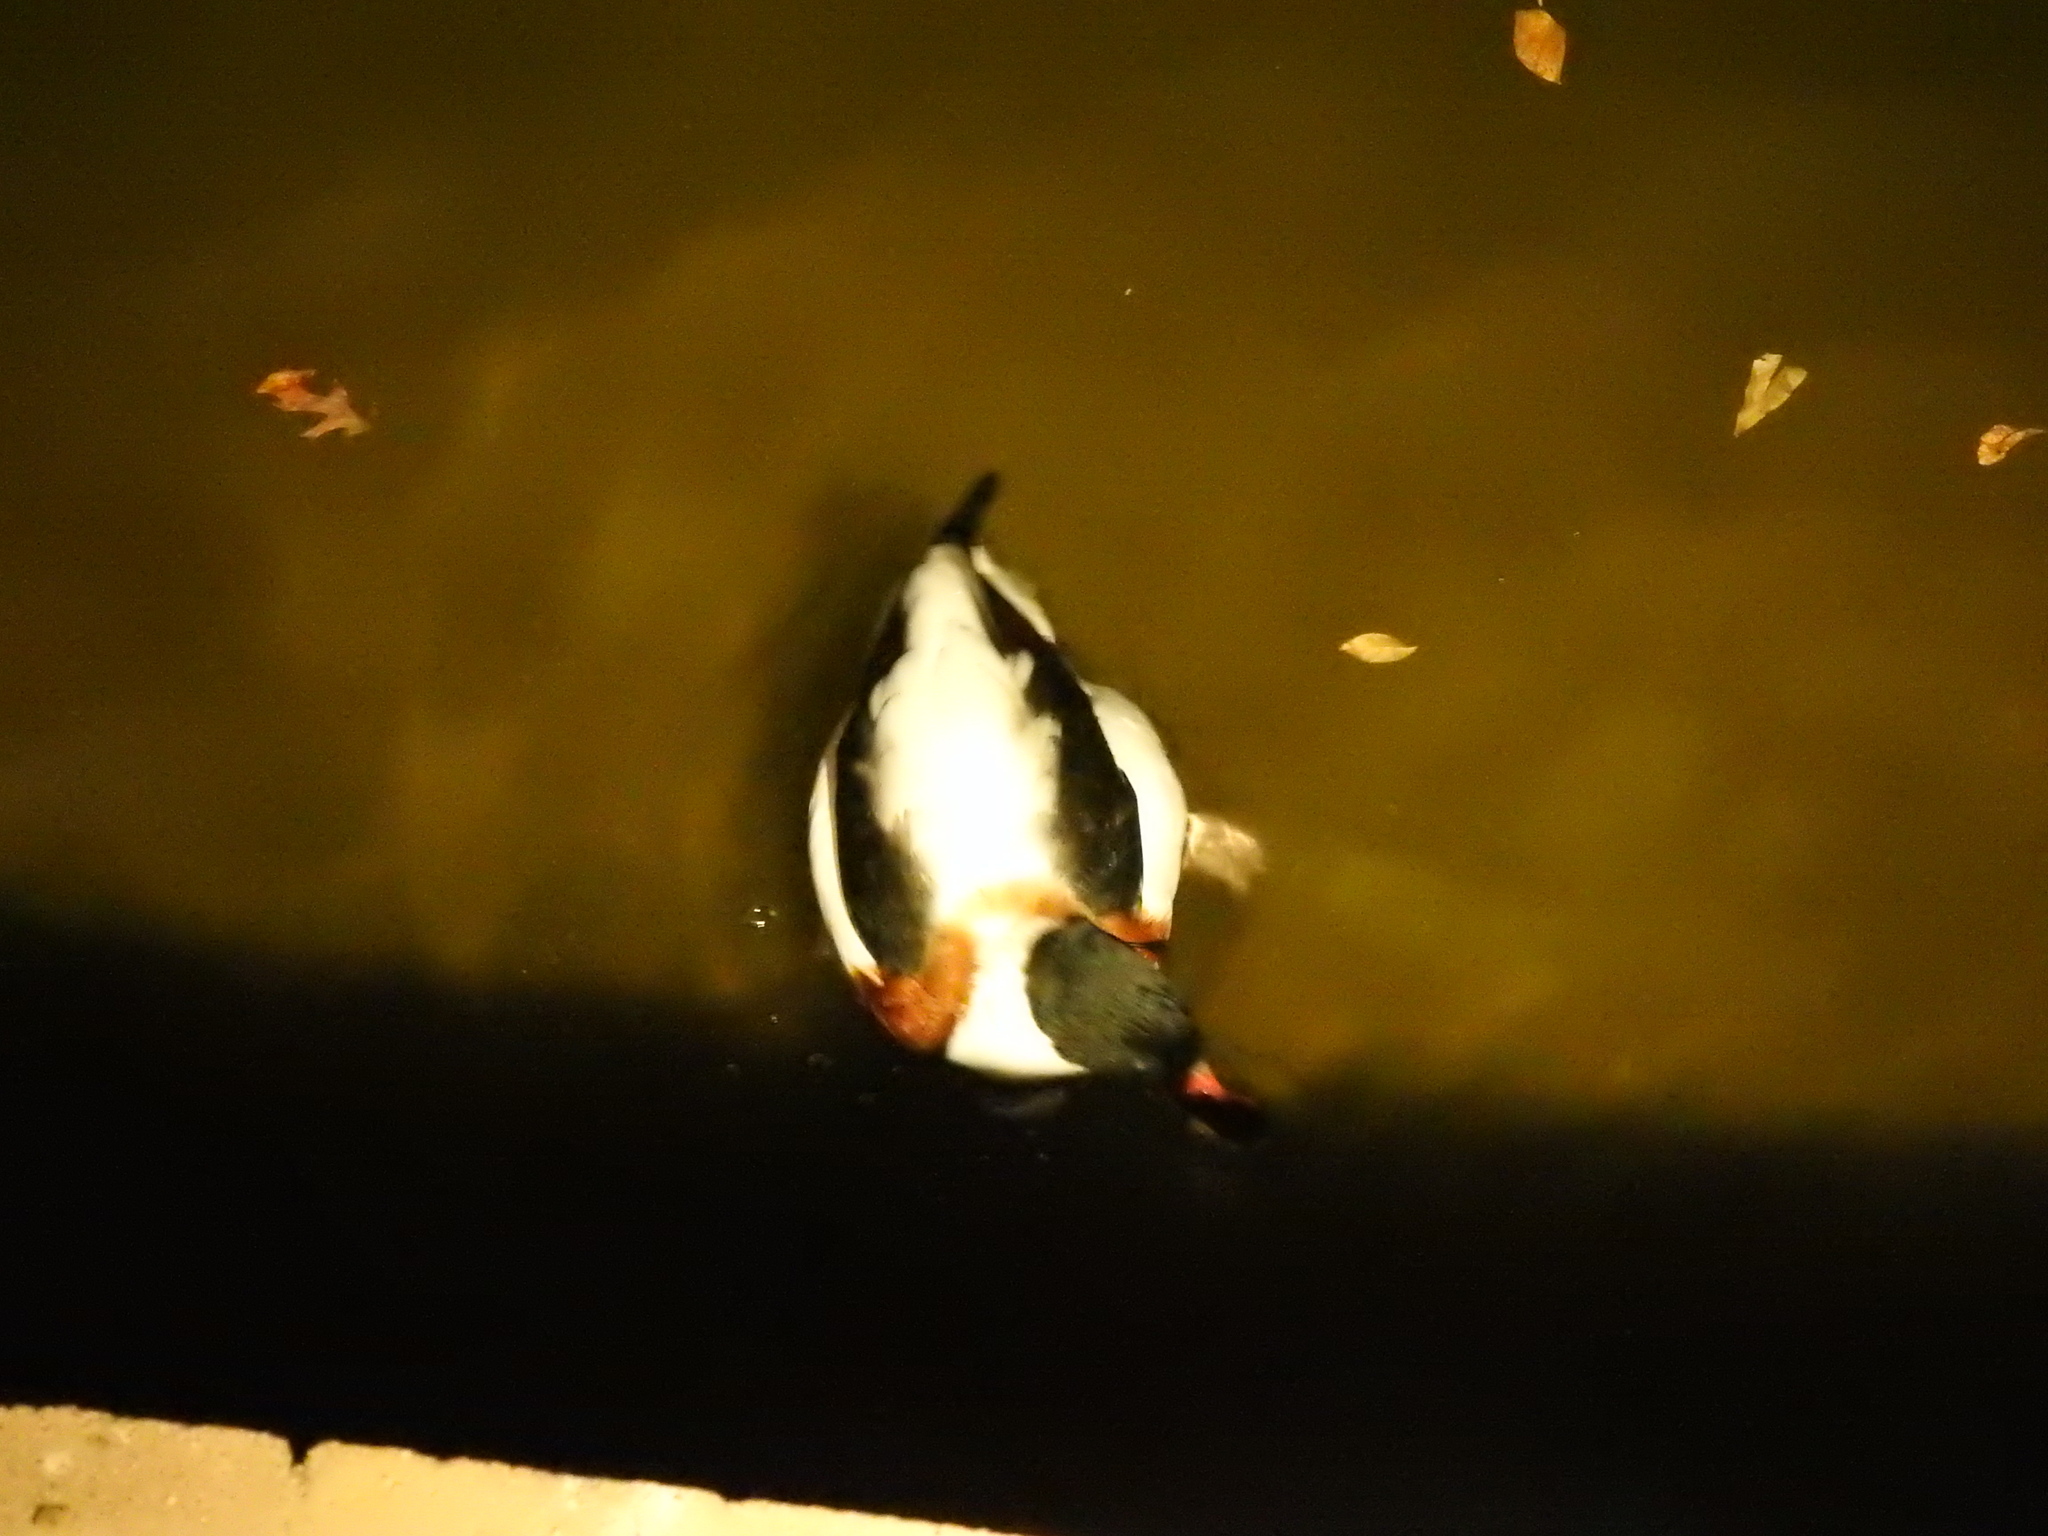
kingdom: Animalia
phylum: Chordata
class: Aves
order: Anseriformes
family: Anatidae
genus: Mergus
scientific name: Mergus merganser
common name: Common merganser
